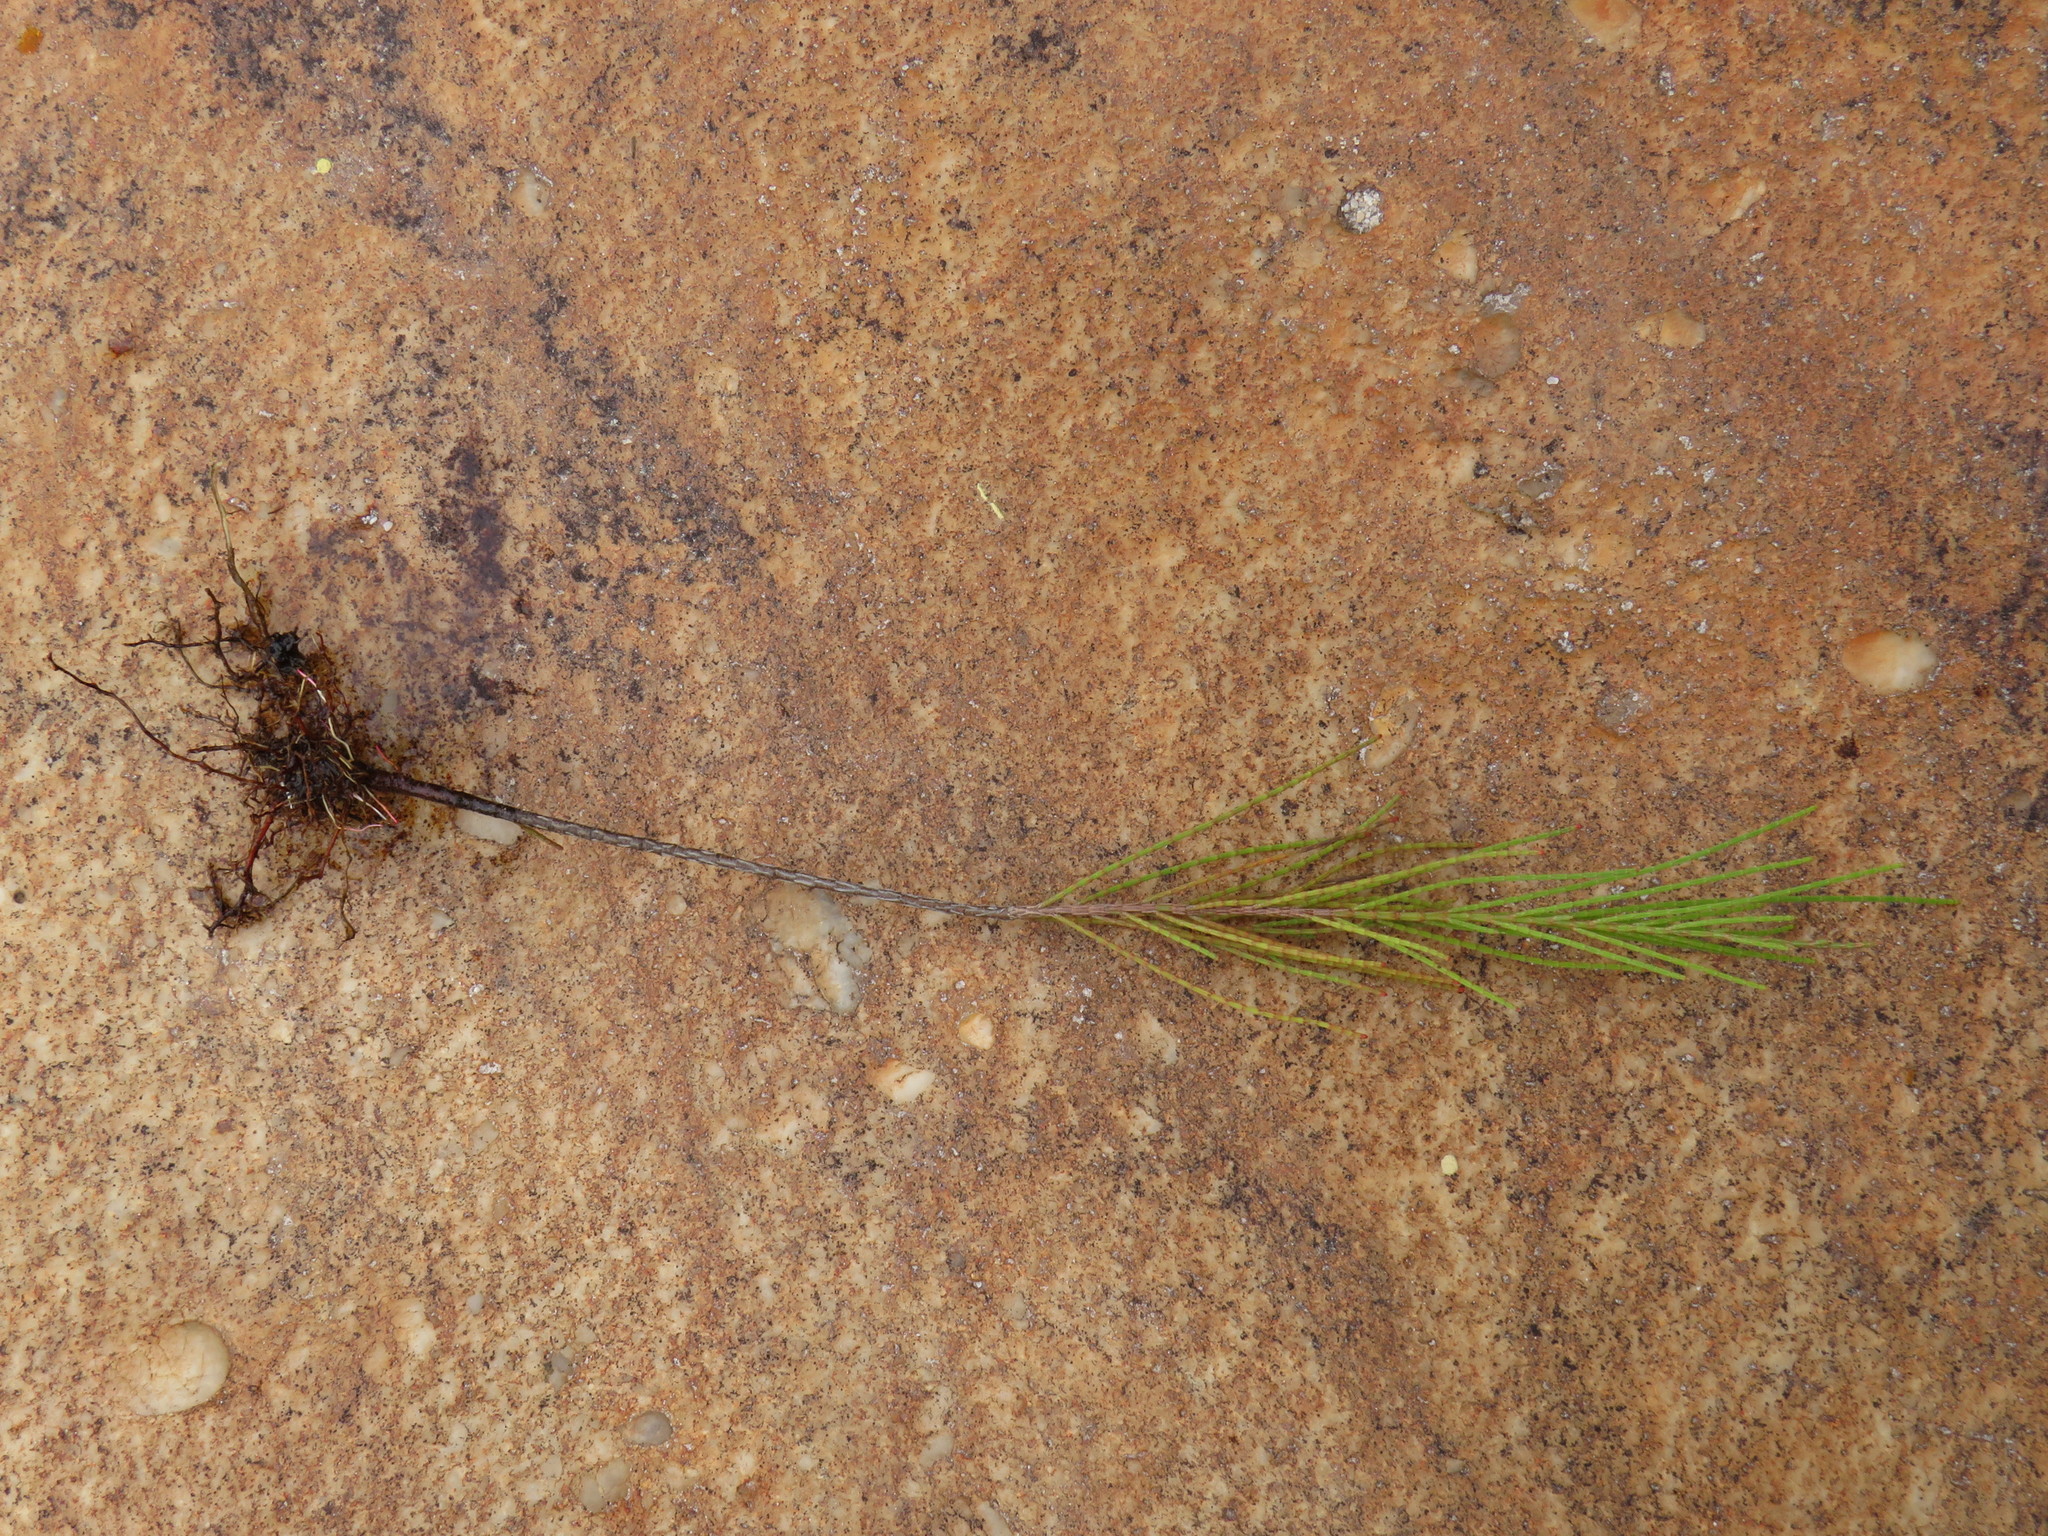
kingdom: Plantae
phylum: Tracheophyta
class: Magnoliopsida
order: Fagales
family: Casuarinaceae
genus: Casuarina
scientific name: Casuarina cunninghamiana
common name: River sheoak
